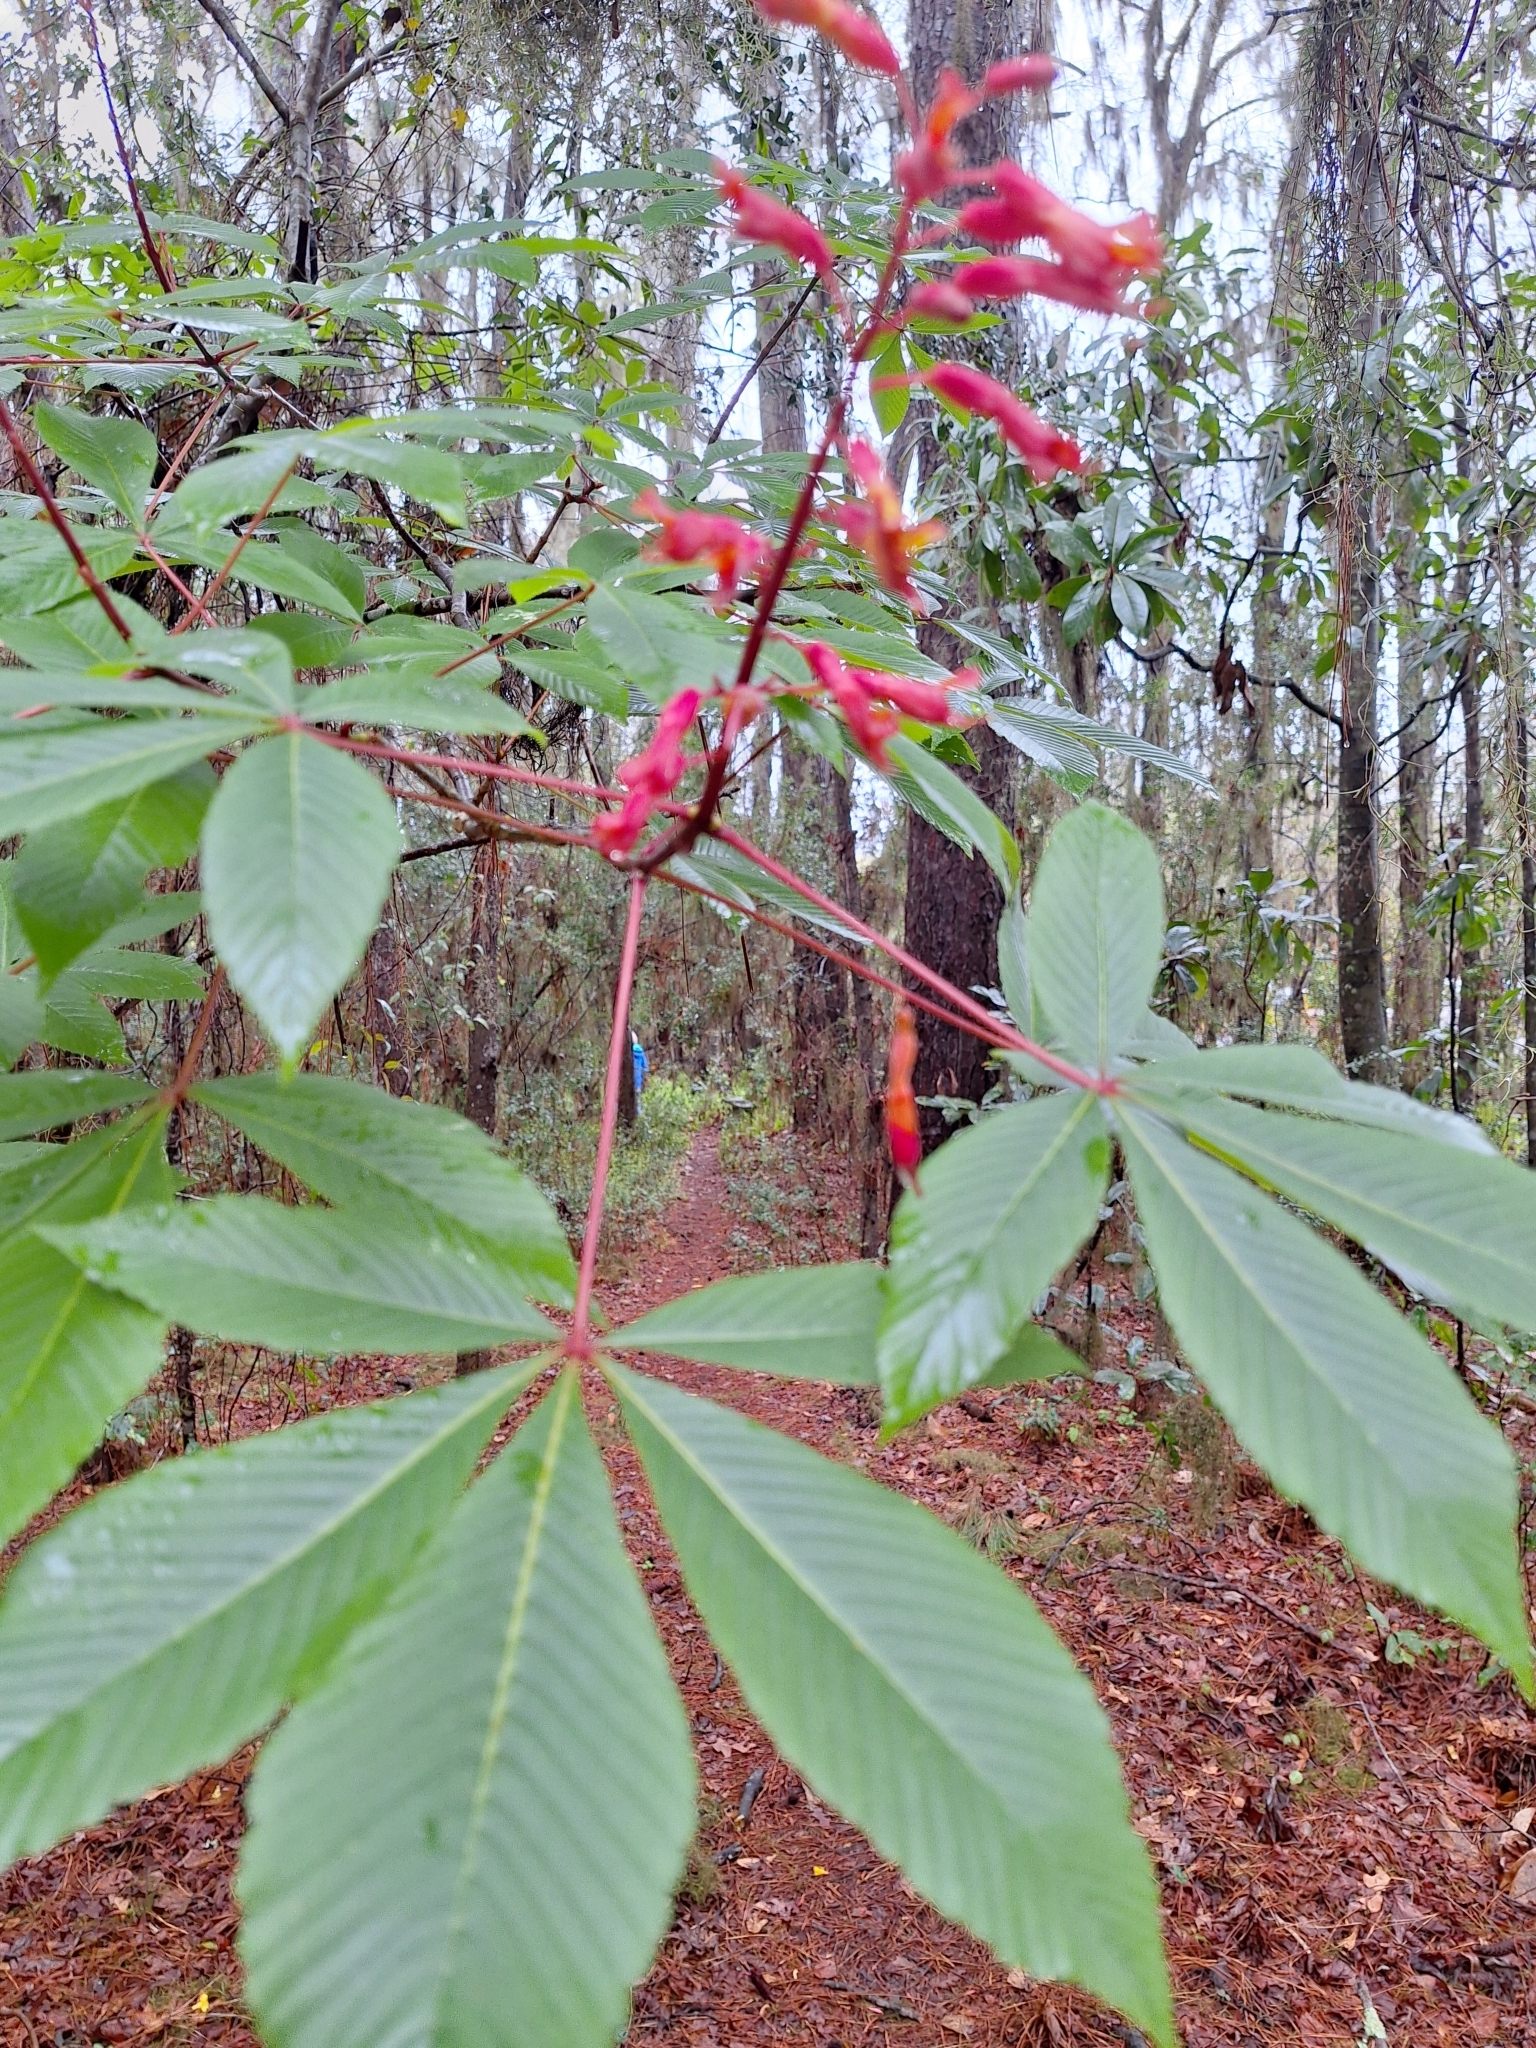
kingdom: Plantae
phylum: Tracheophyta
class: Magnoliopsida
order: Sapindales
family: Sapindaceae
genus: Aesculus
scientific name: Aesculus pavia
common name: Red buckeye
